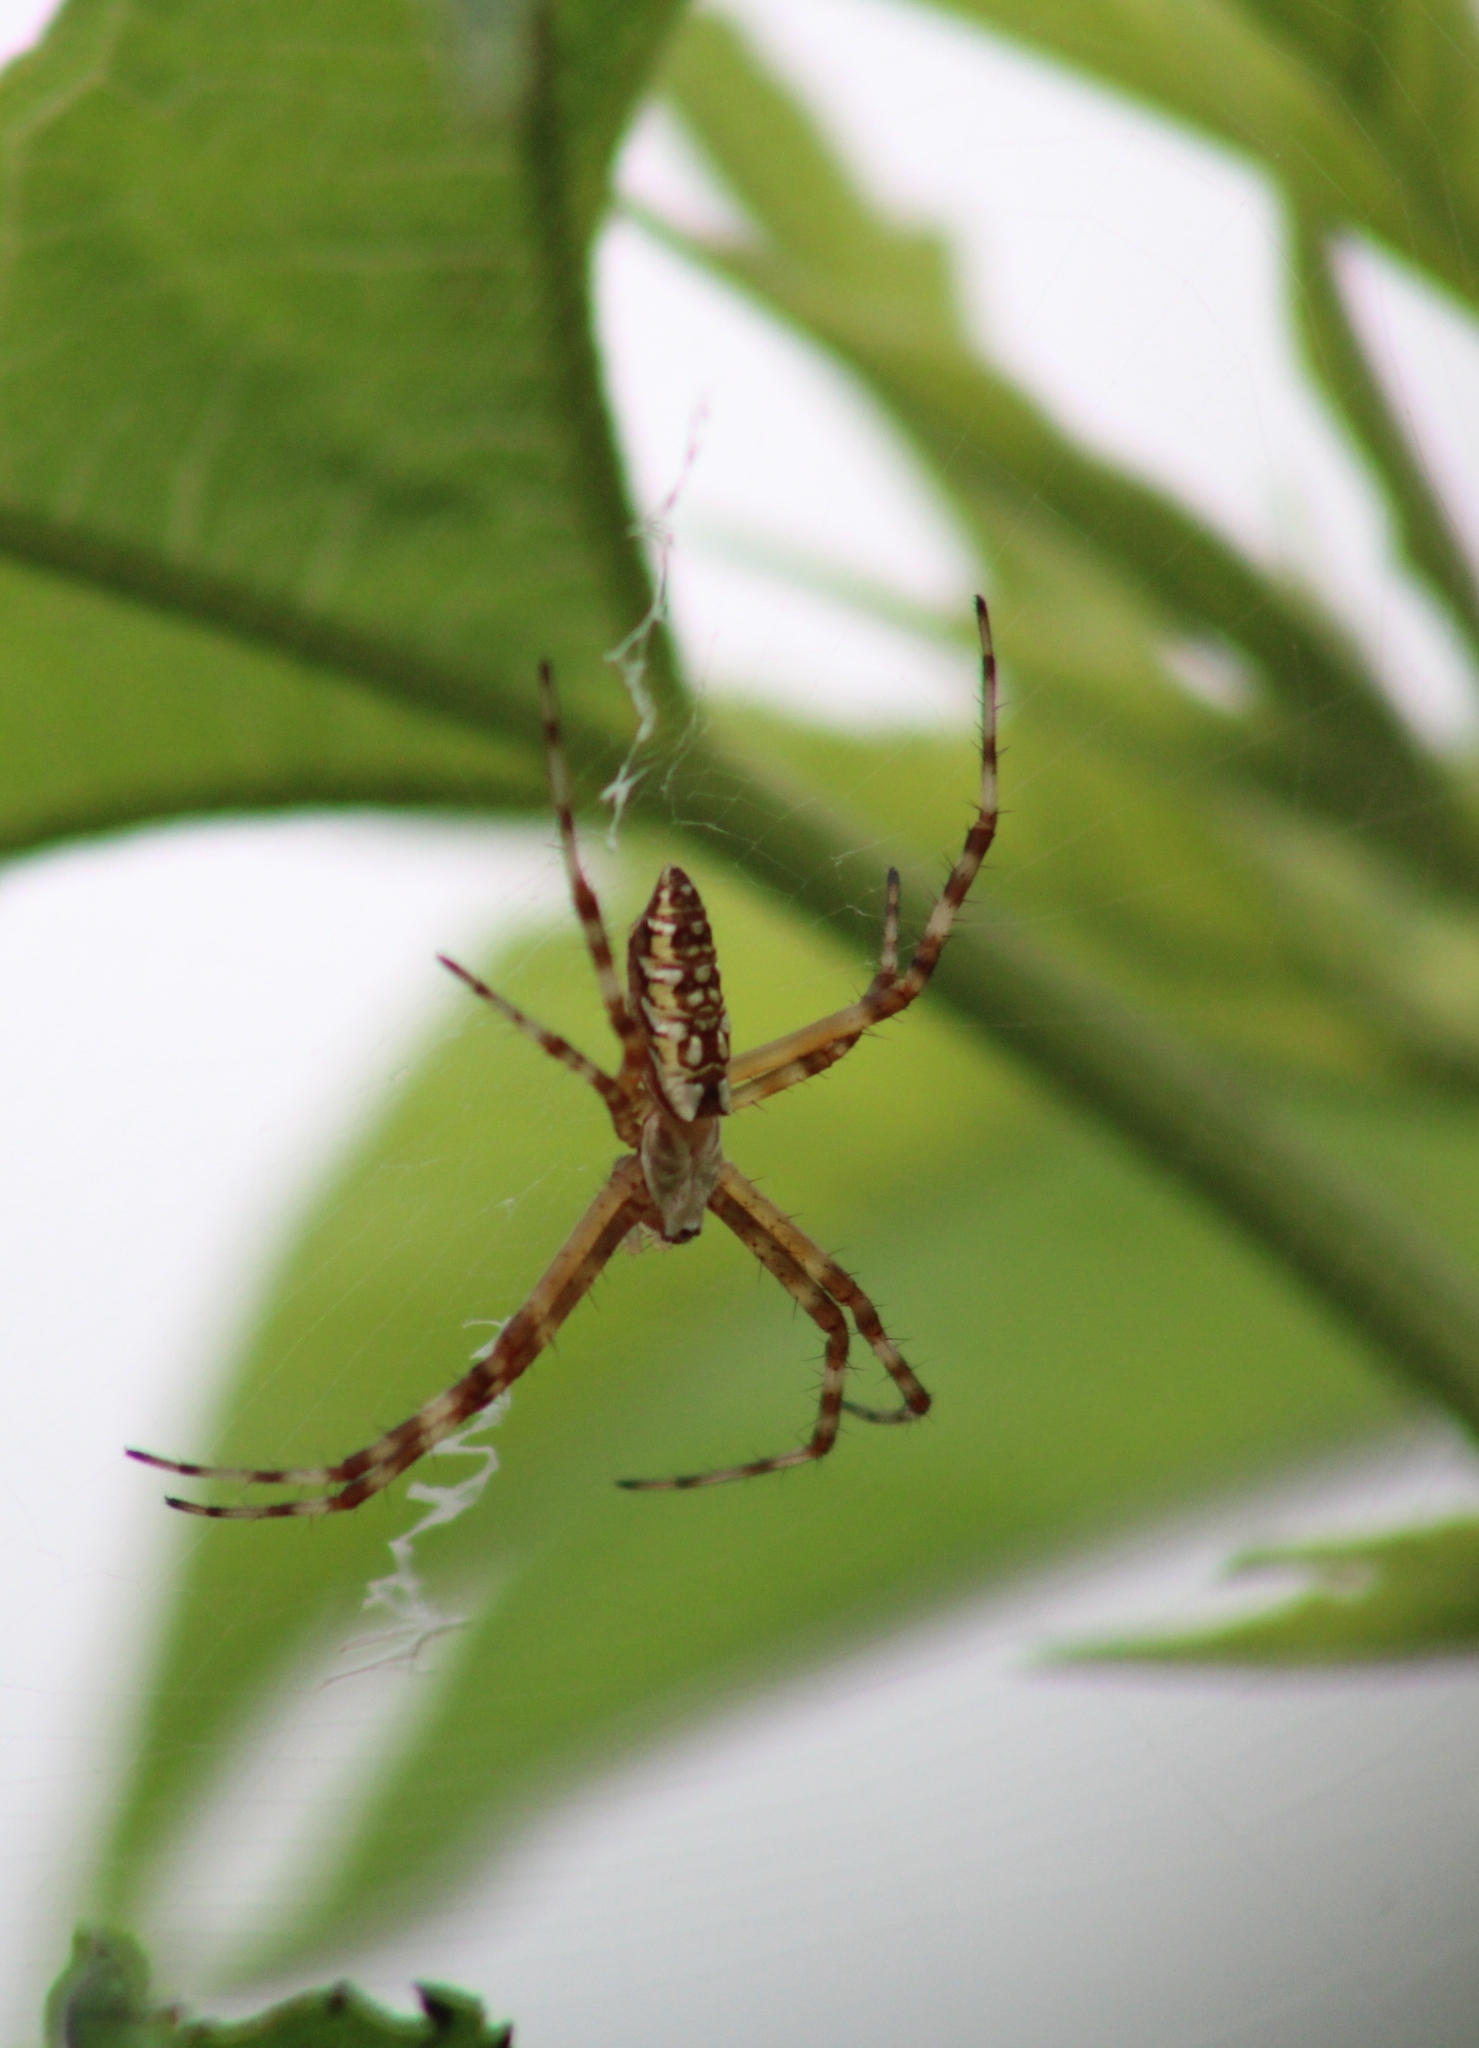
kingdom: Animalia
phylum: Arthropoda
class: Arachnida
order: Araneae
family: Araneidae
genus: Argiope
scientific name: Argiope aurantia
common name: Orb weavers
